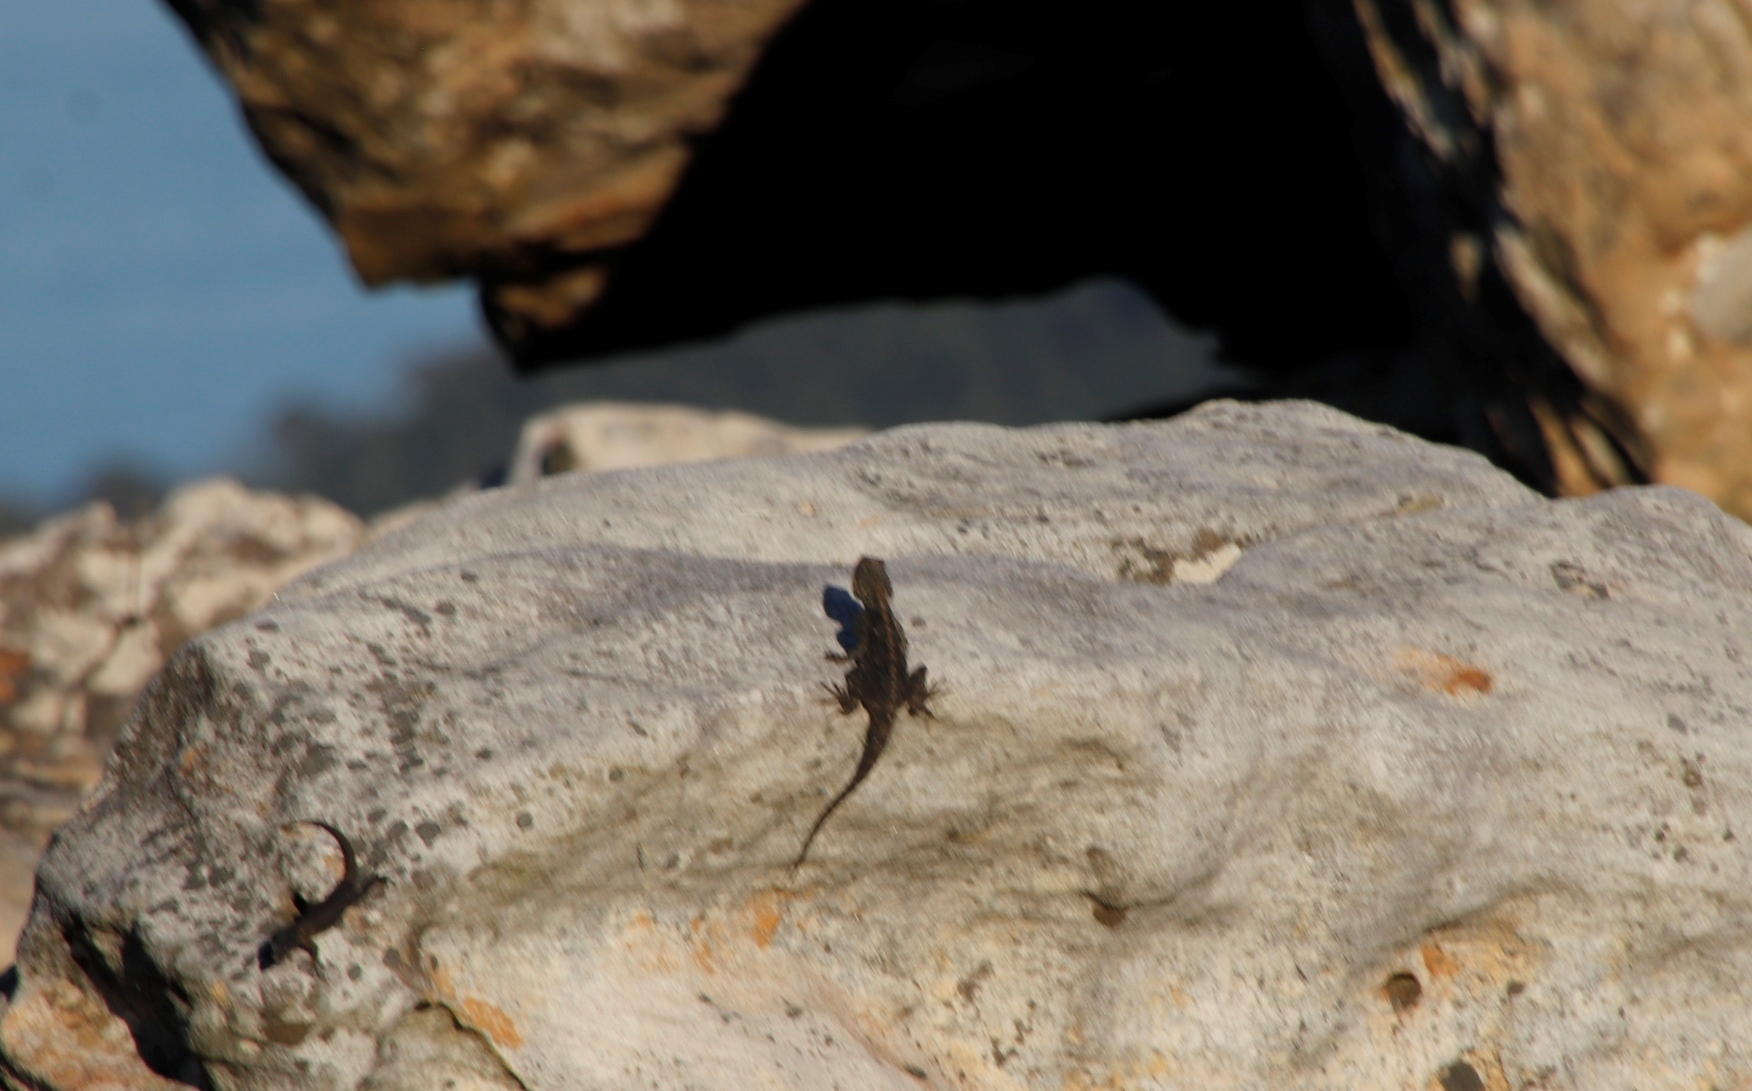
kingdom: Animalia
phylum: Chordata
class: Squamata
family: Agamidae
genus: Agama
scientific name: Agama atra
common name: Southern african rock agama
